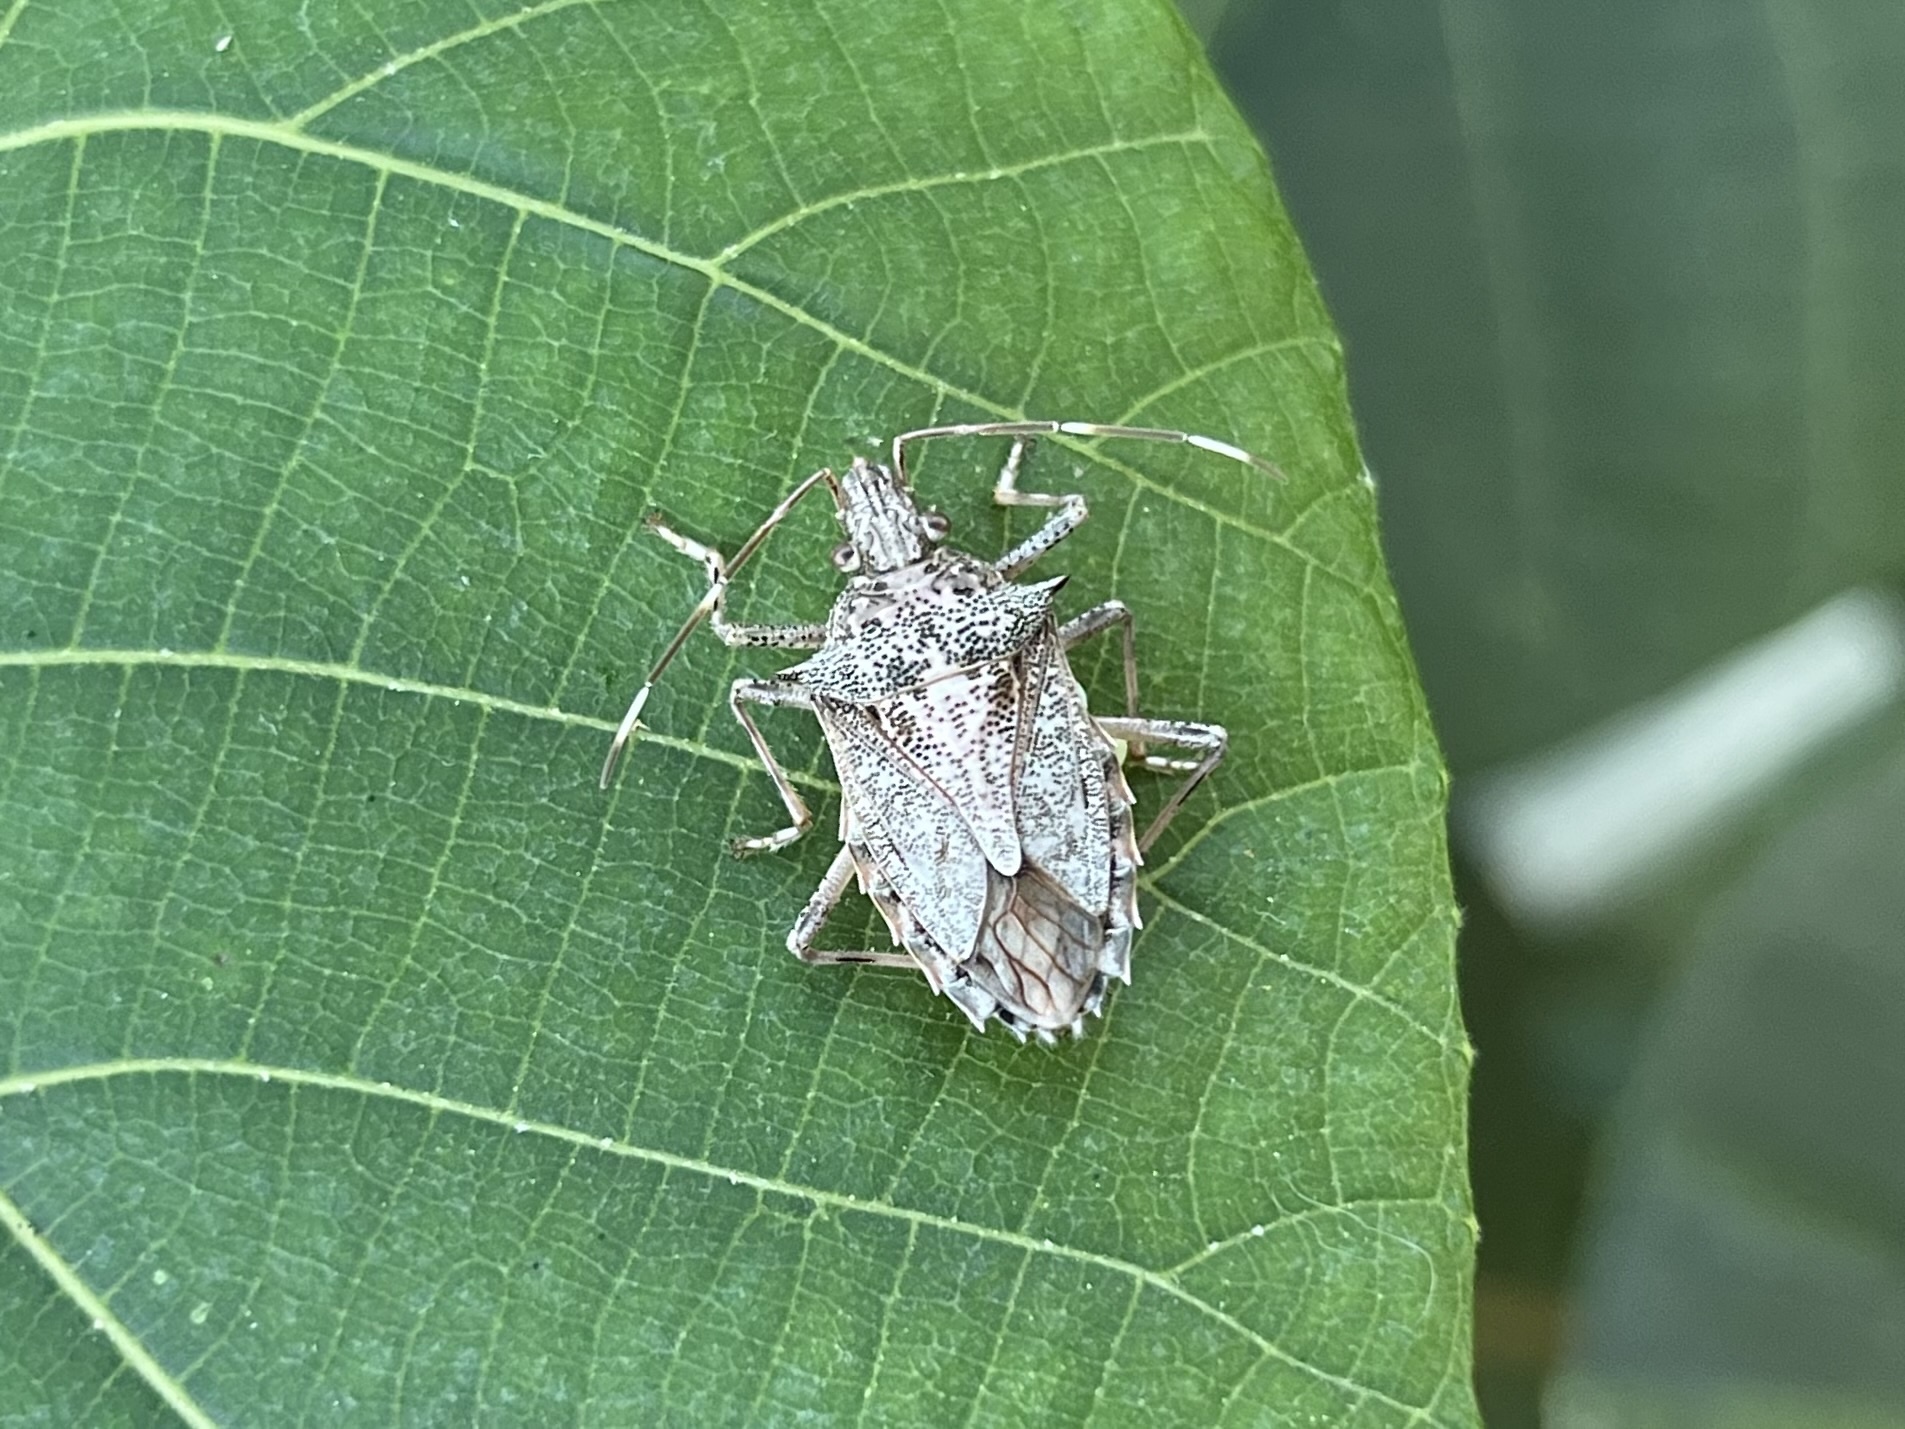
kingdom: Animalia
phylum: Arthropoda
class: Insecta
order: Hemiptera
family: Pentatomidae
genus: Bromocoris
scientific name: Bromocoris
